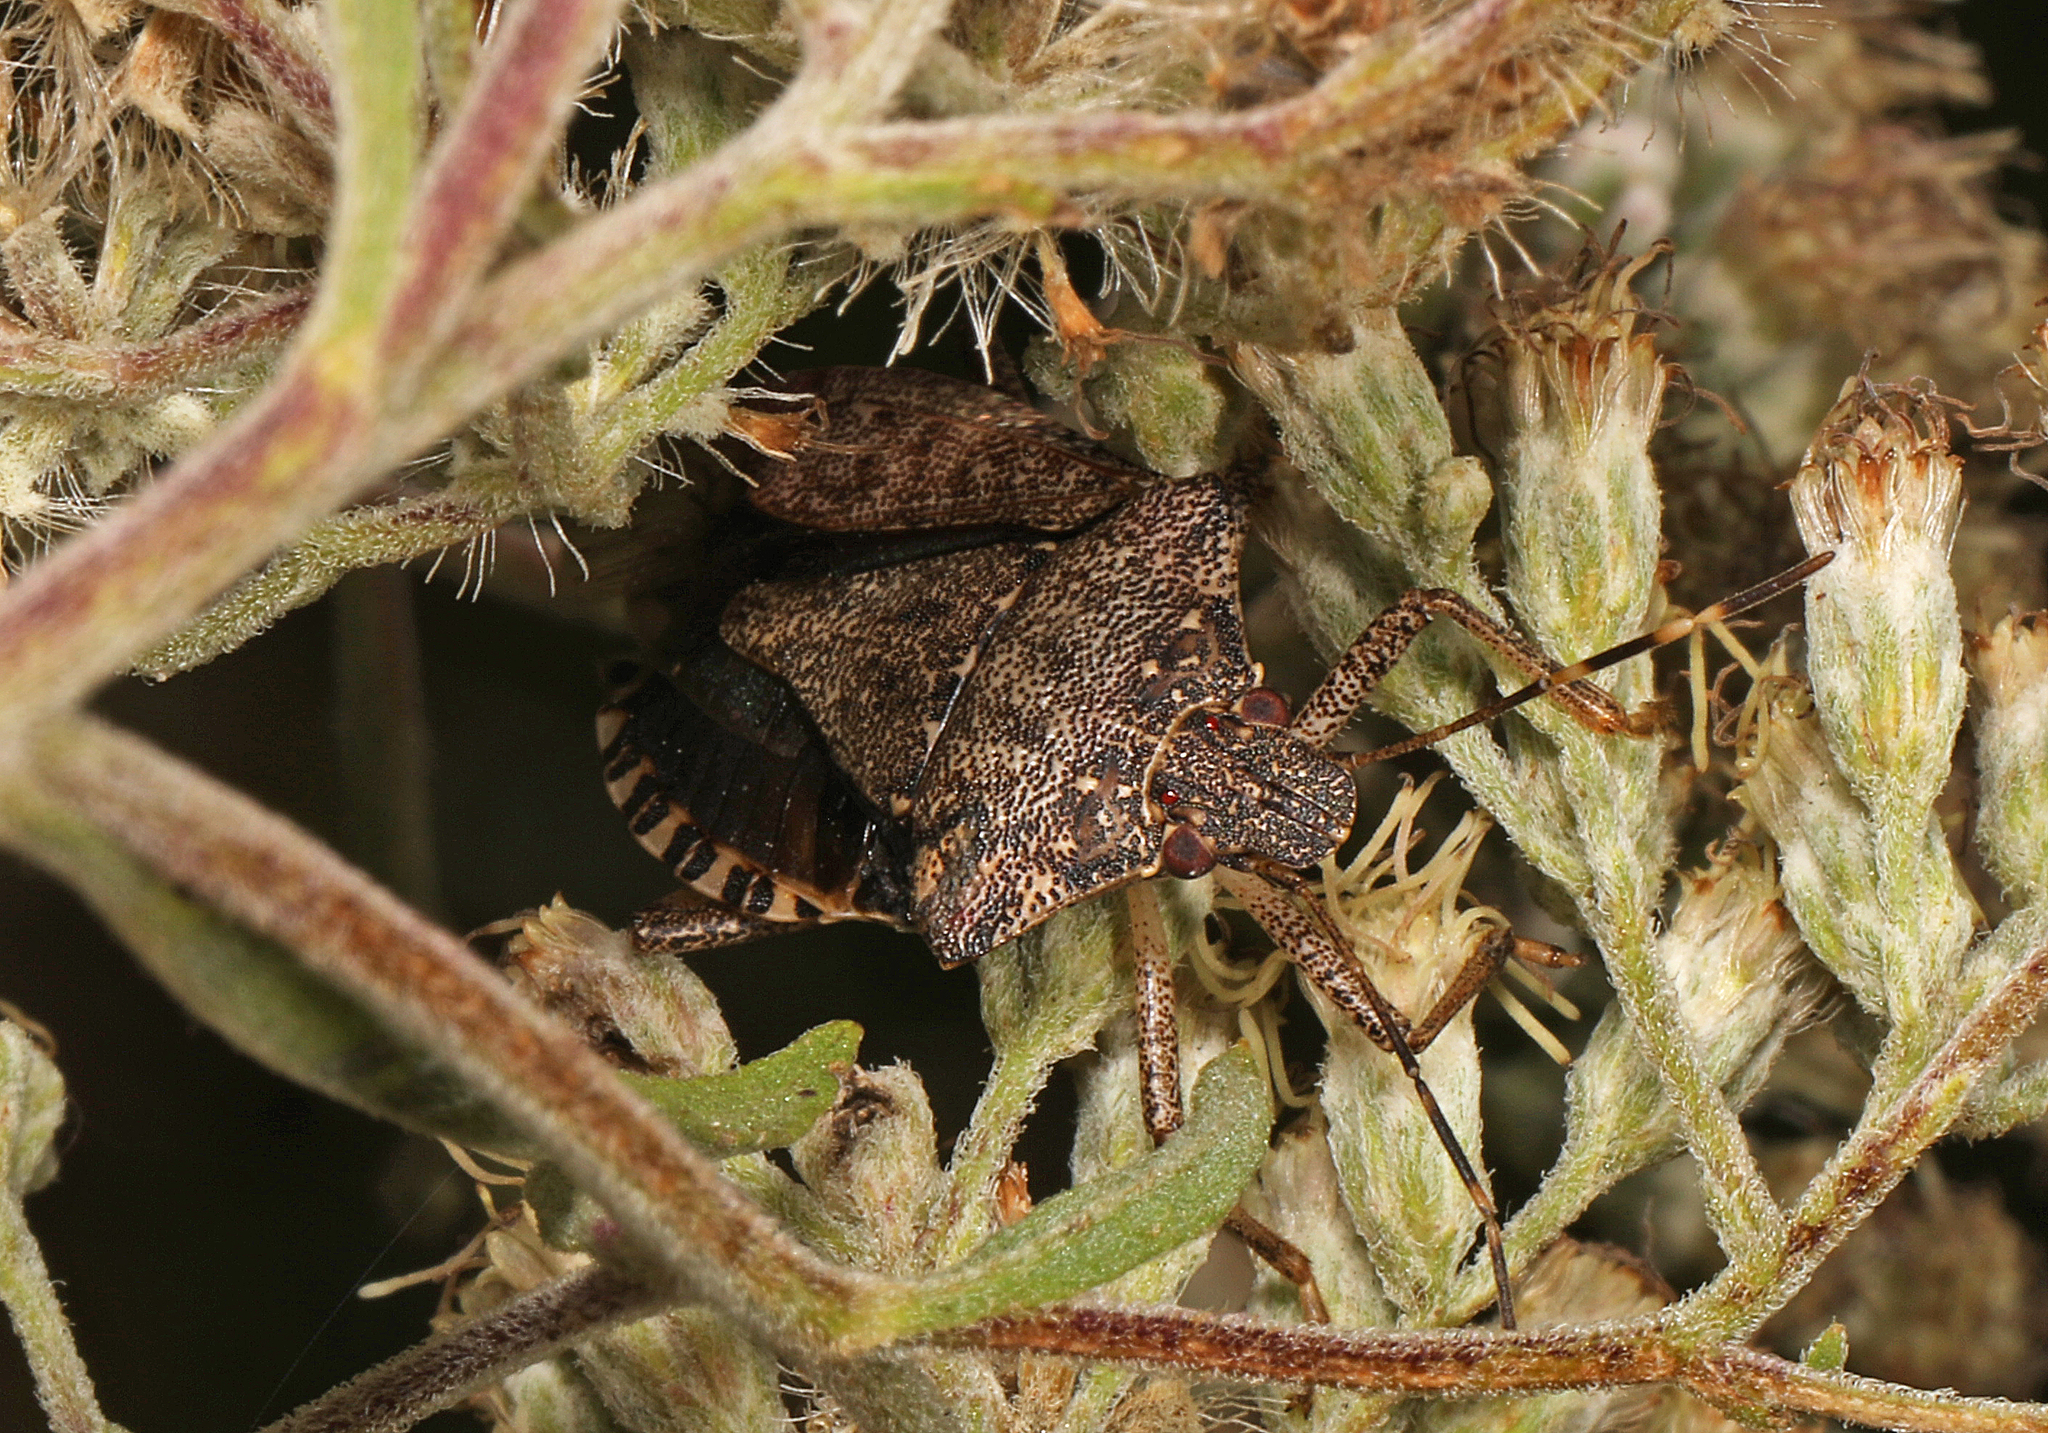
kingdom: Animalia
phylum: Arthropoda
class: Insecta
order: Hemiptera
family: Pentatomidae
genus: Halyomorpha
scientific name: Halyomorpha halys
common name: Brown marmorated stink bug
